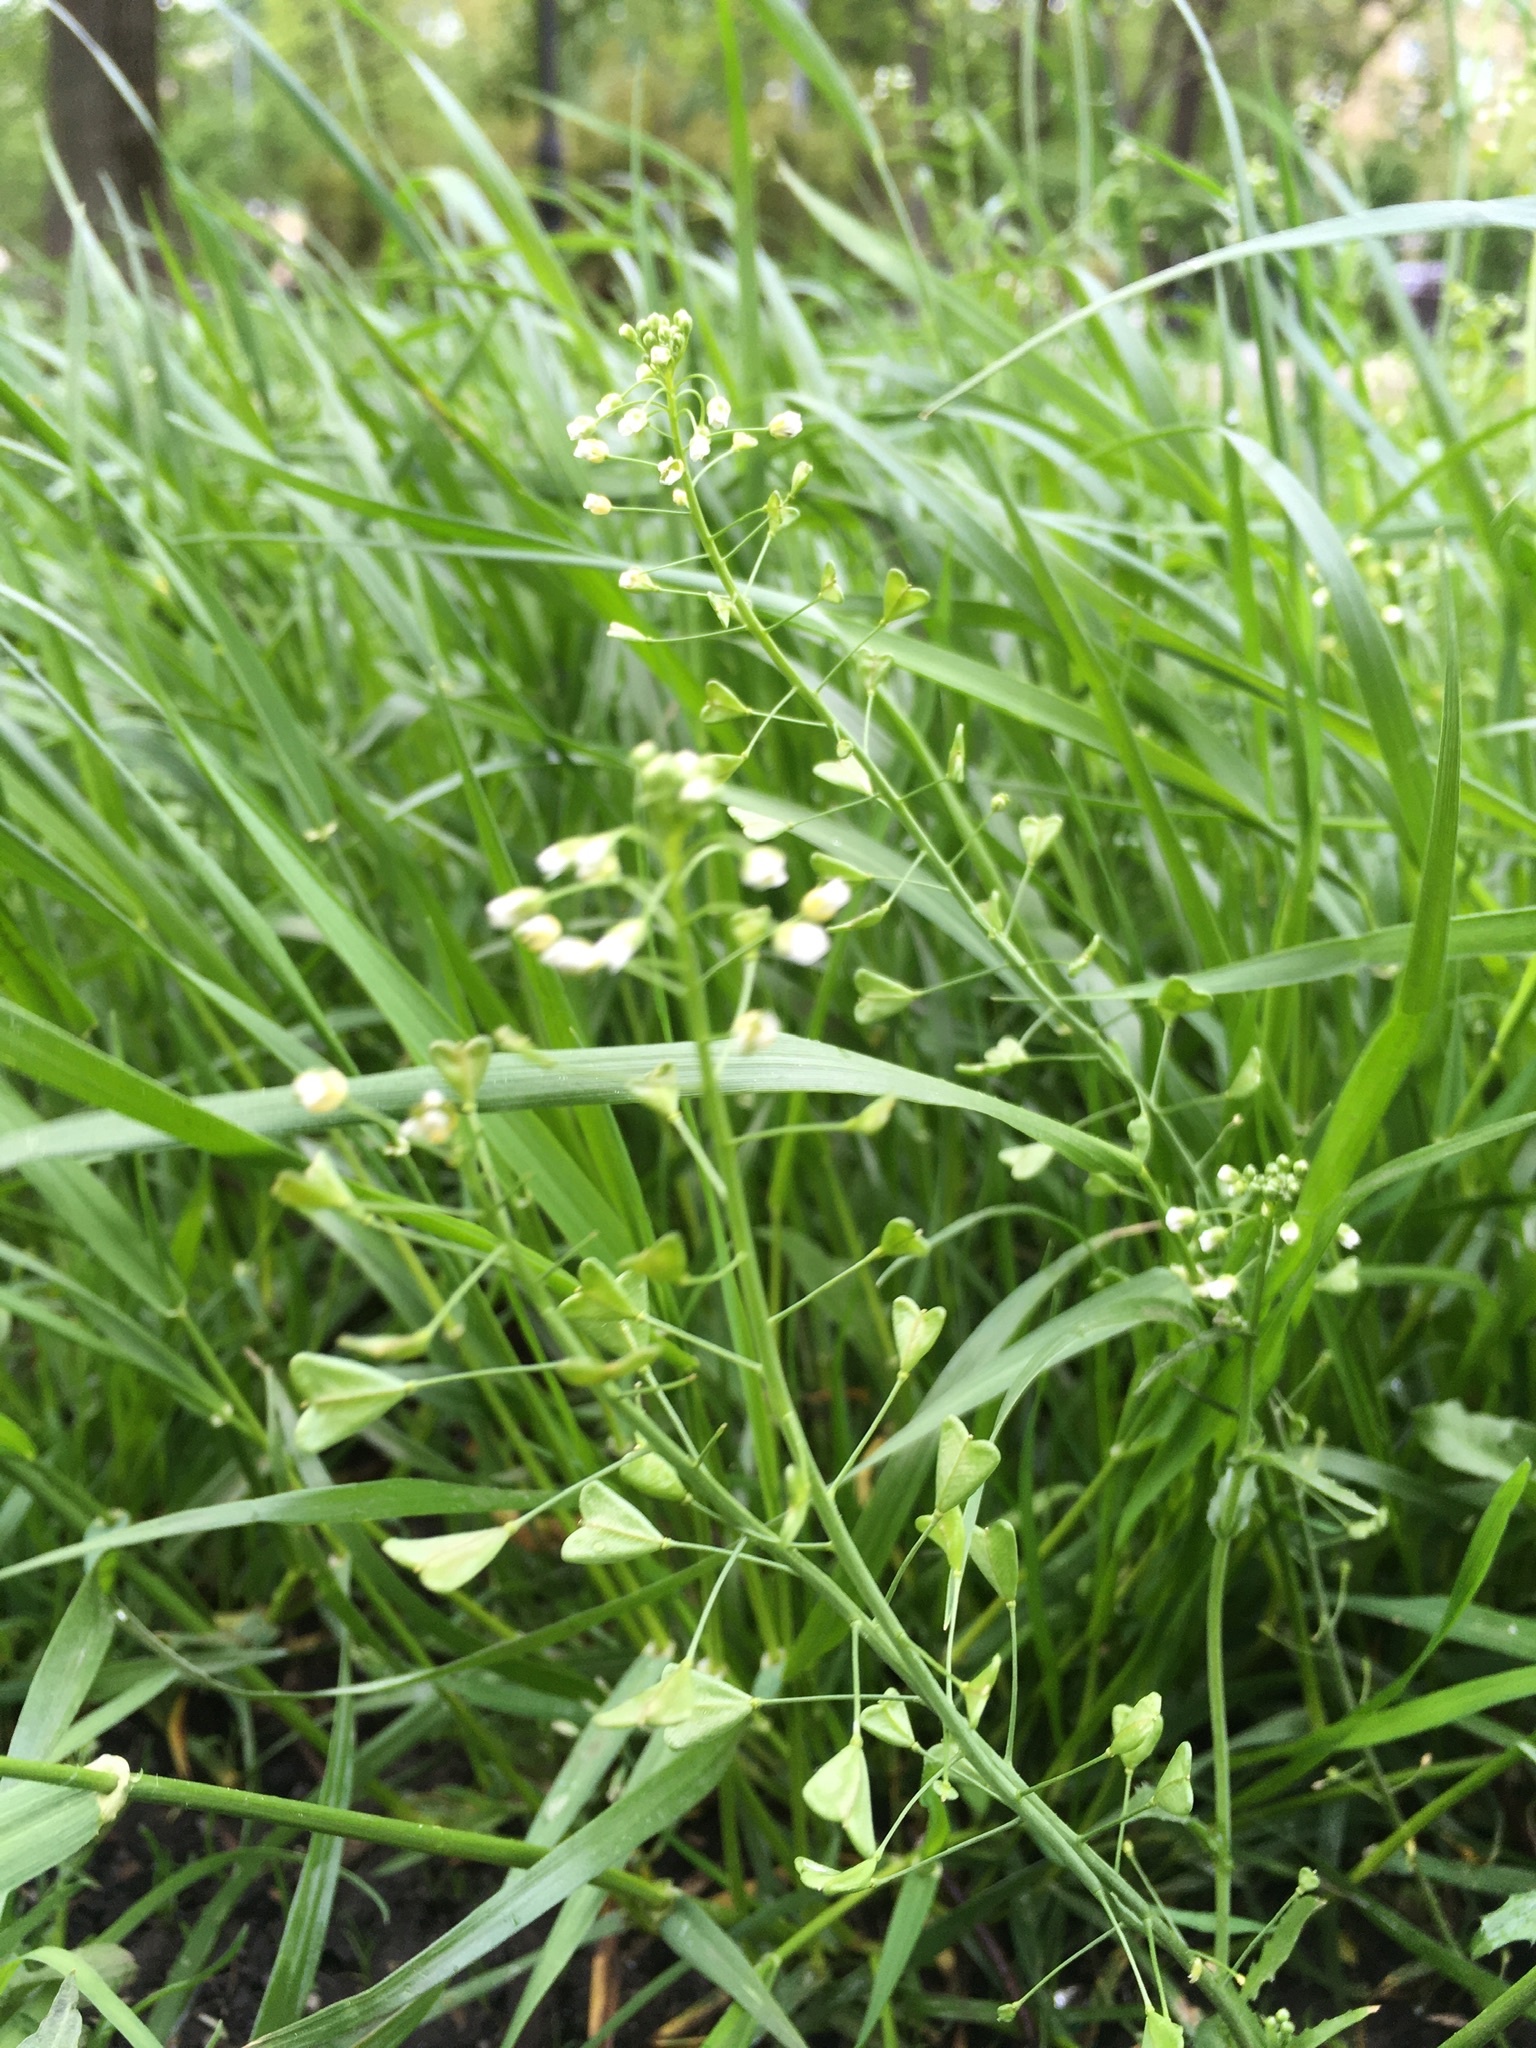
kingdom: Plantae
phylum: Tracheophyta
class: Magnoliopsida
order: Brassicales
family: Brassicaceae
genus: Capsella
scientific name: Capsella bursa-pastoris
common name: Shepherd's purse
